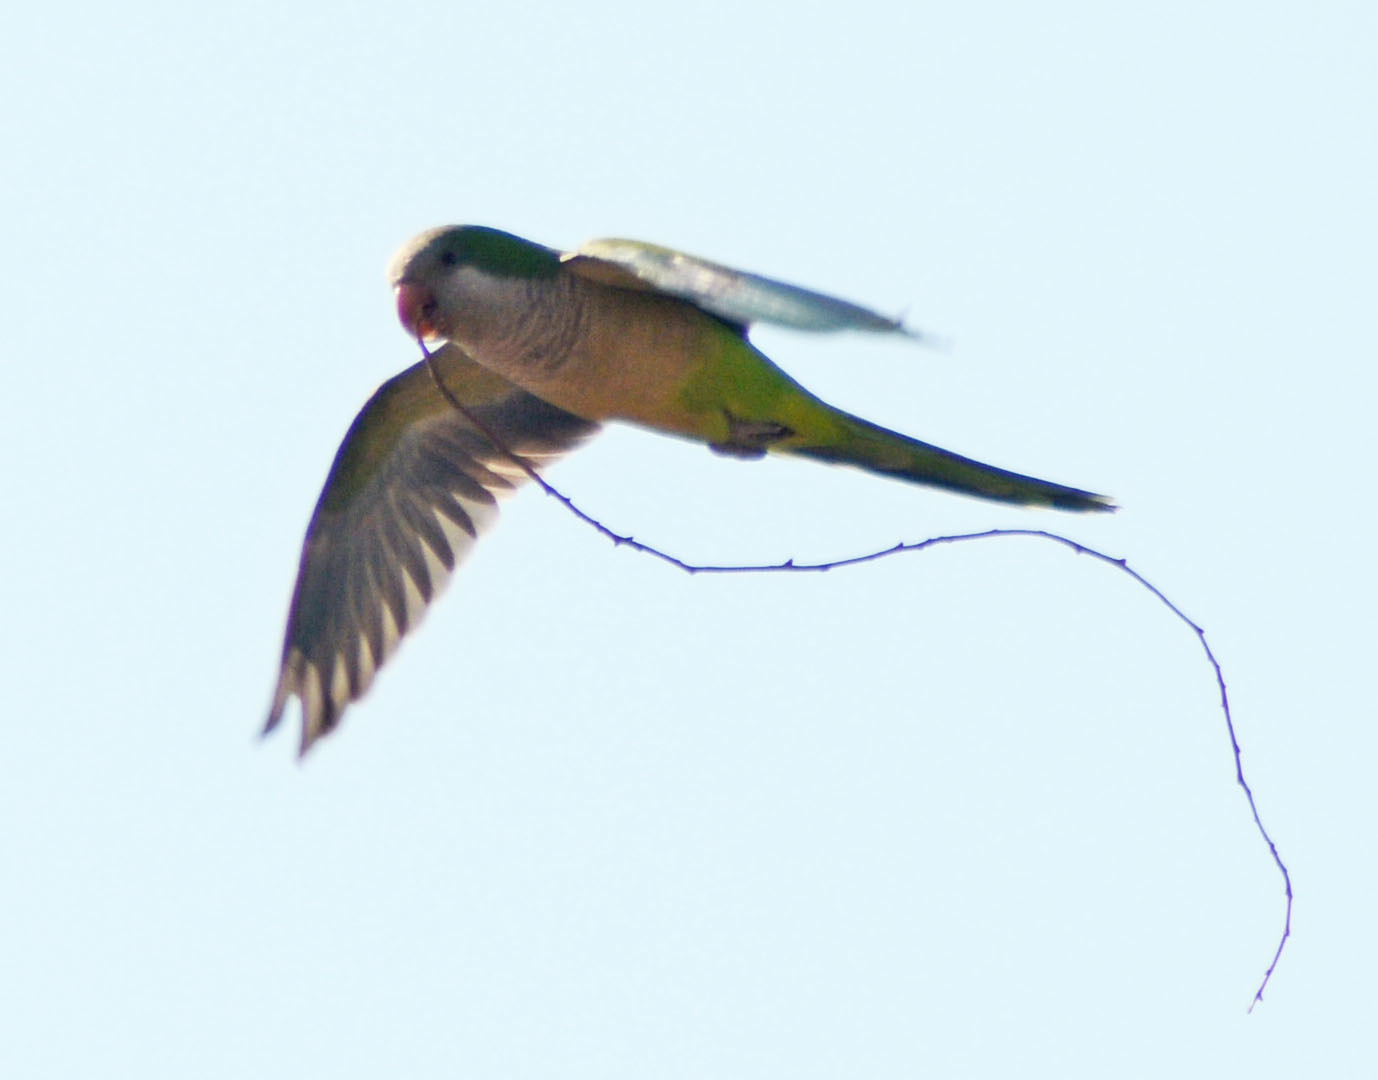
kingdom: Animalia
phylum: Chordata
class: Aves
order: Psittaciformes
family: Psittacidae
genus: Myiopsitta
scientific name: Myiopsitta monachus
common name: Monk parakeet
